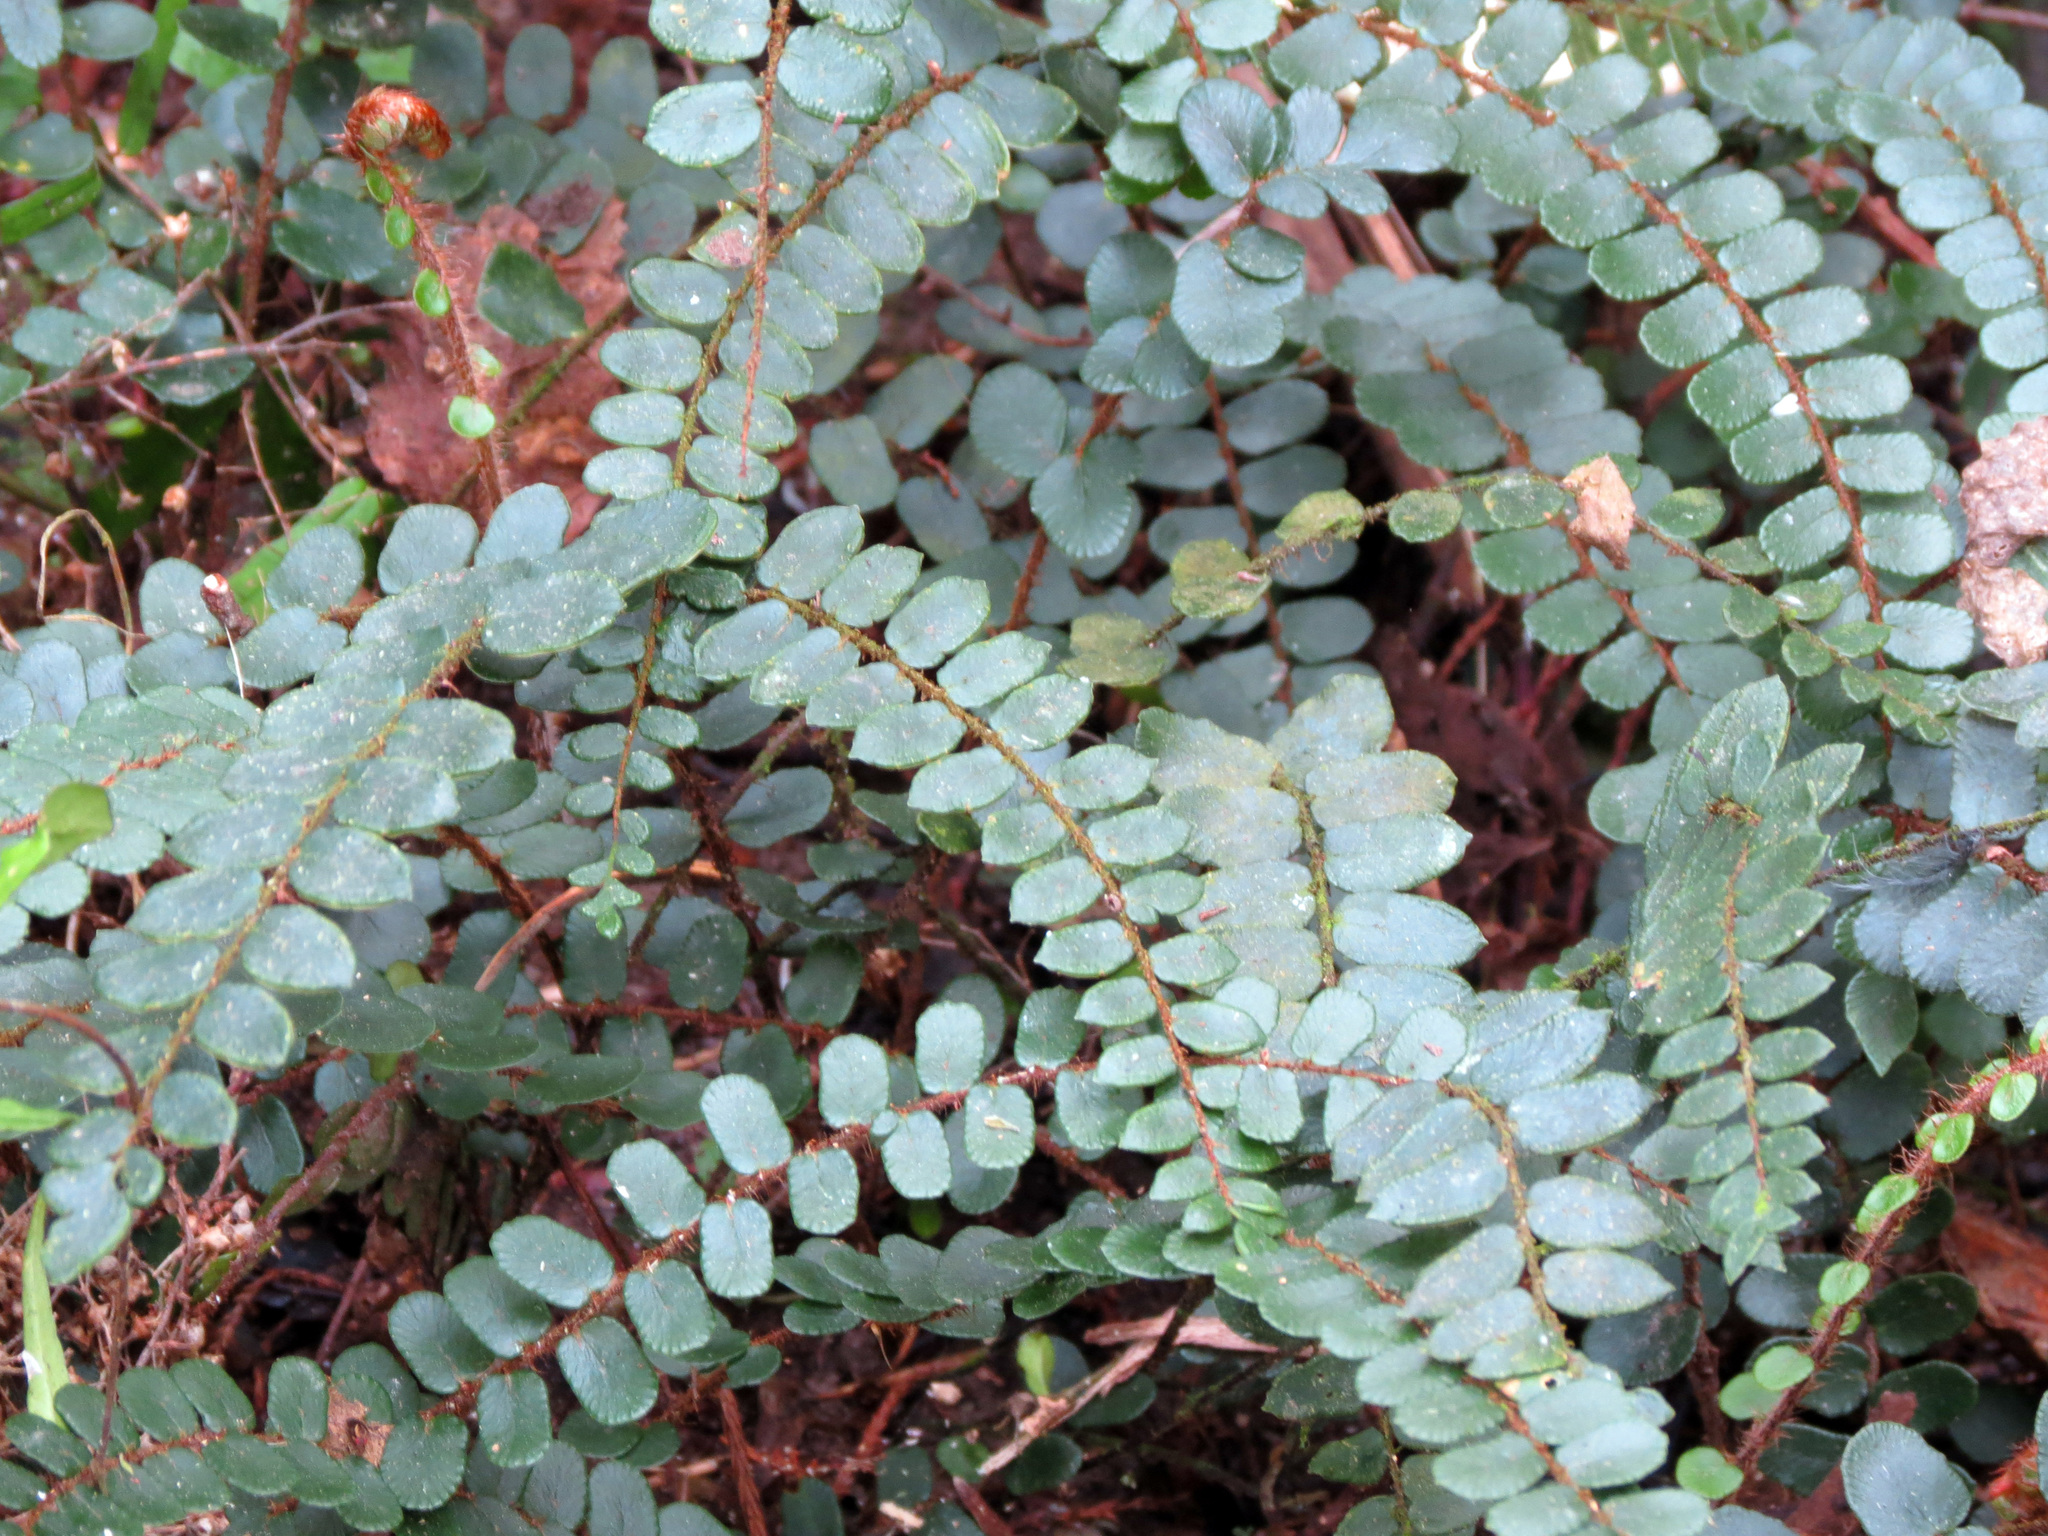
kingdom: Plantae
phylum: Tracheophyta
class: Polypodiopsida
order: Polypodiales
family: Pteridaceae
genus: Pellaea
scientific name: Pellaea rotundifolia
